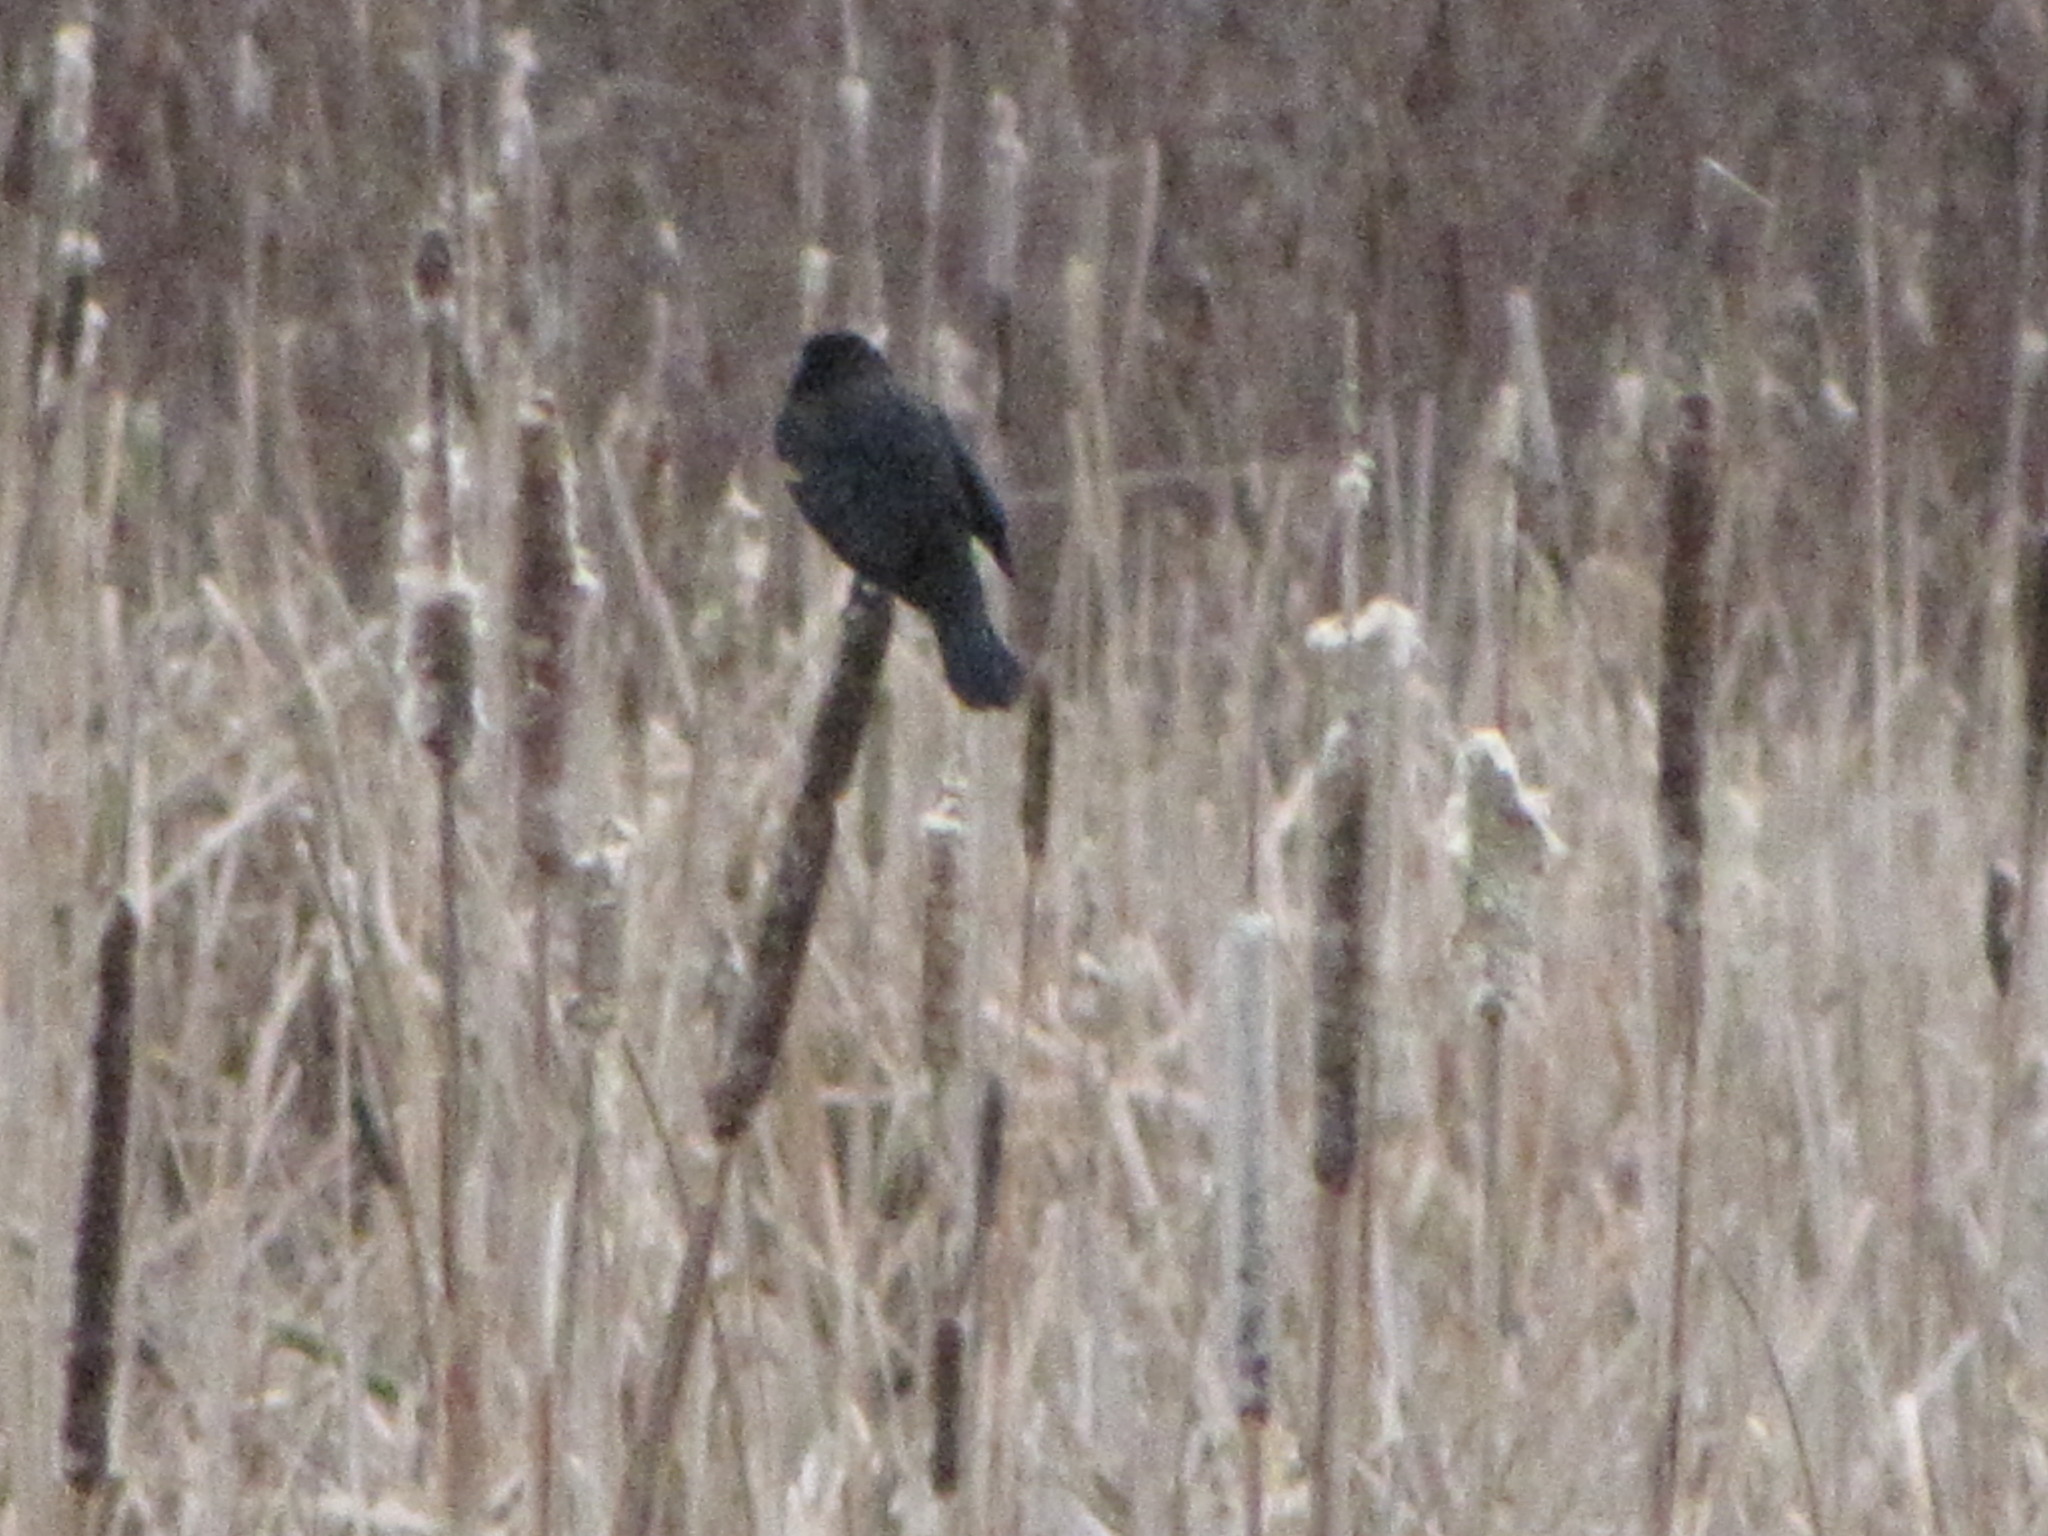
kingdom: Animalia
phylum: Chordata
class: Aves
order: Passeriformes
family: Icteridae
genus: Agelaius
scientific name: Agelaius phoeniceus
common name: Red-winged blackbird
